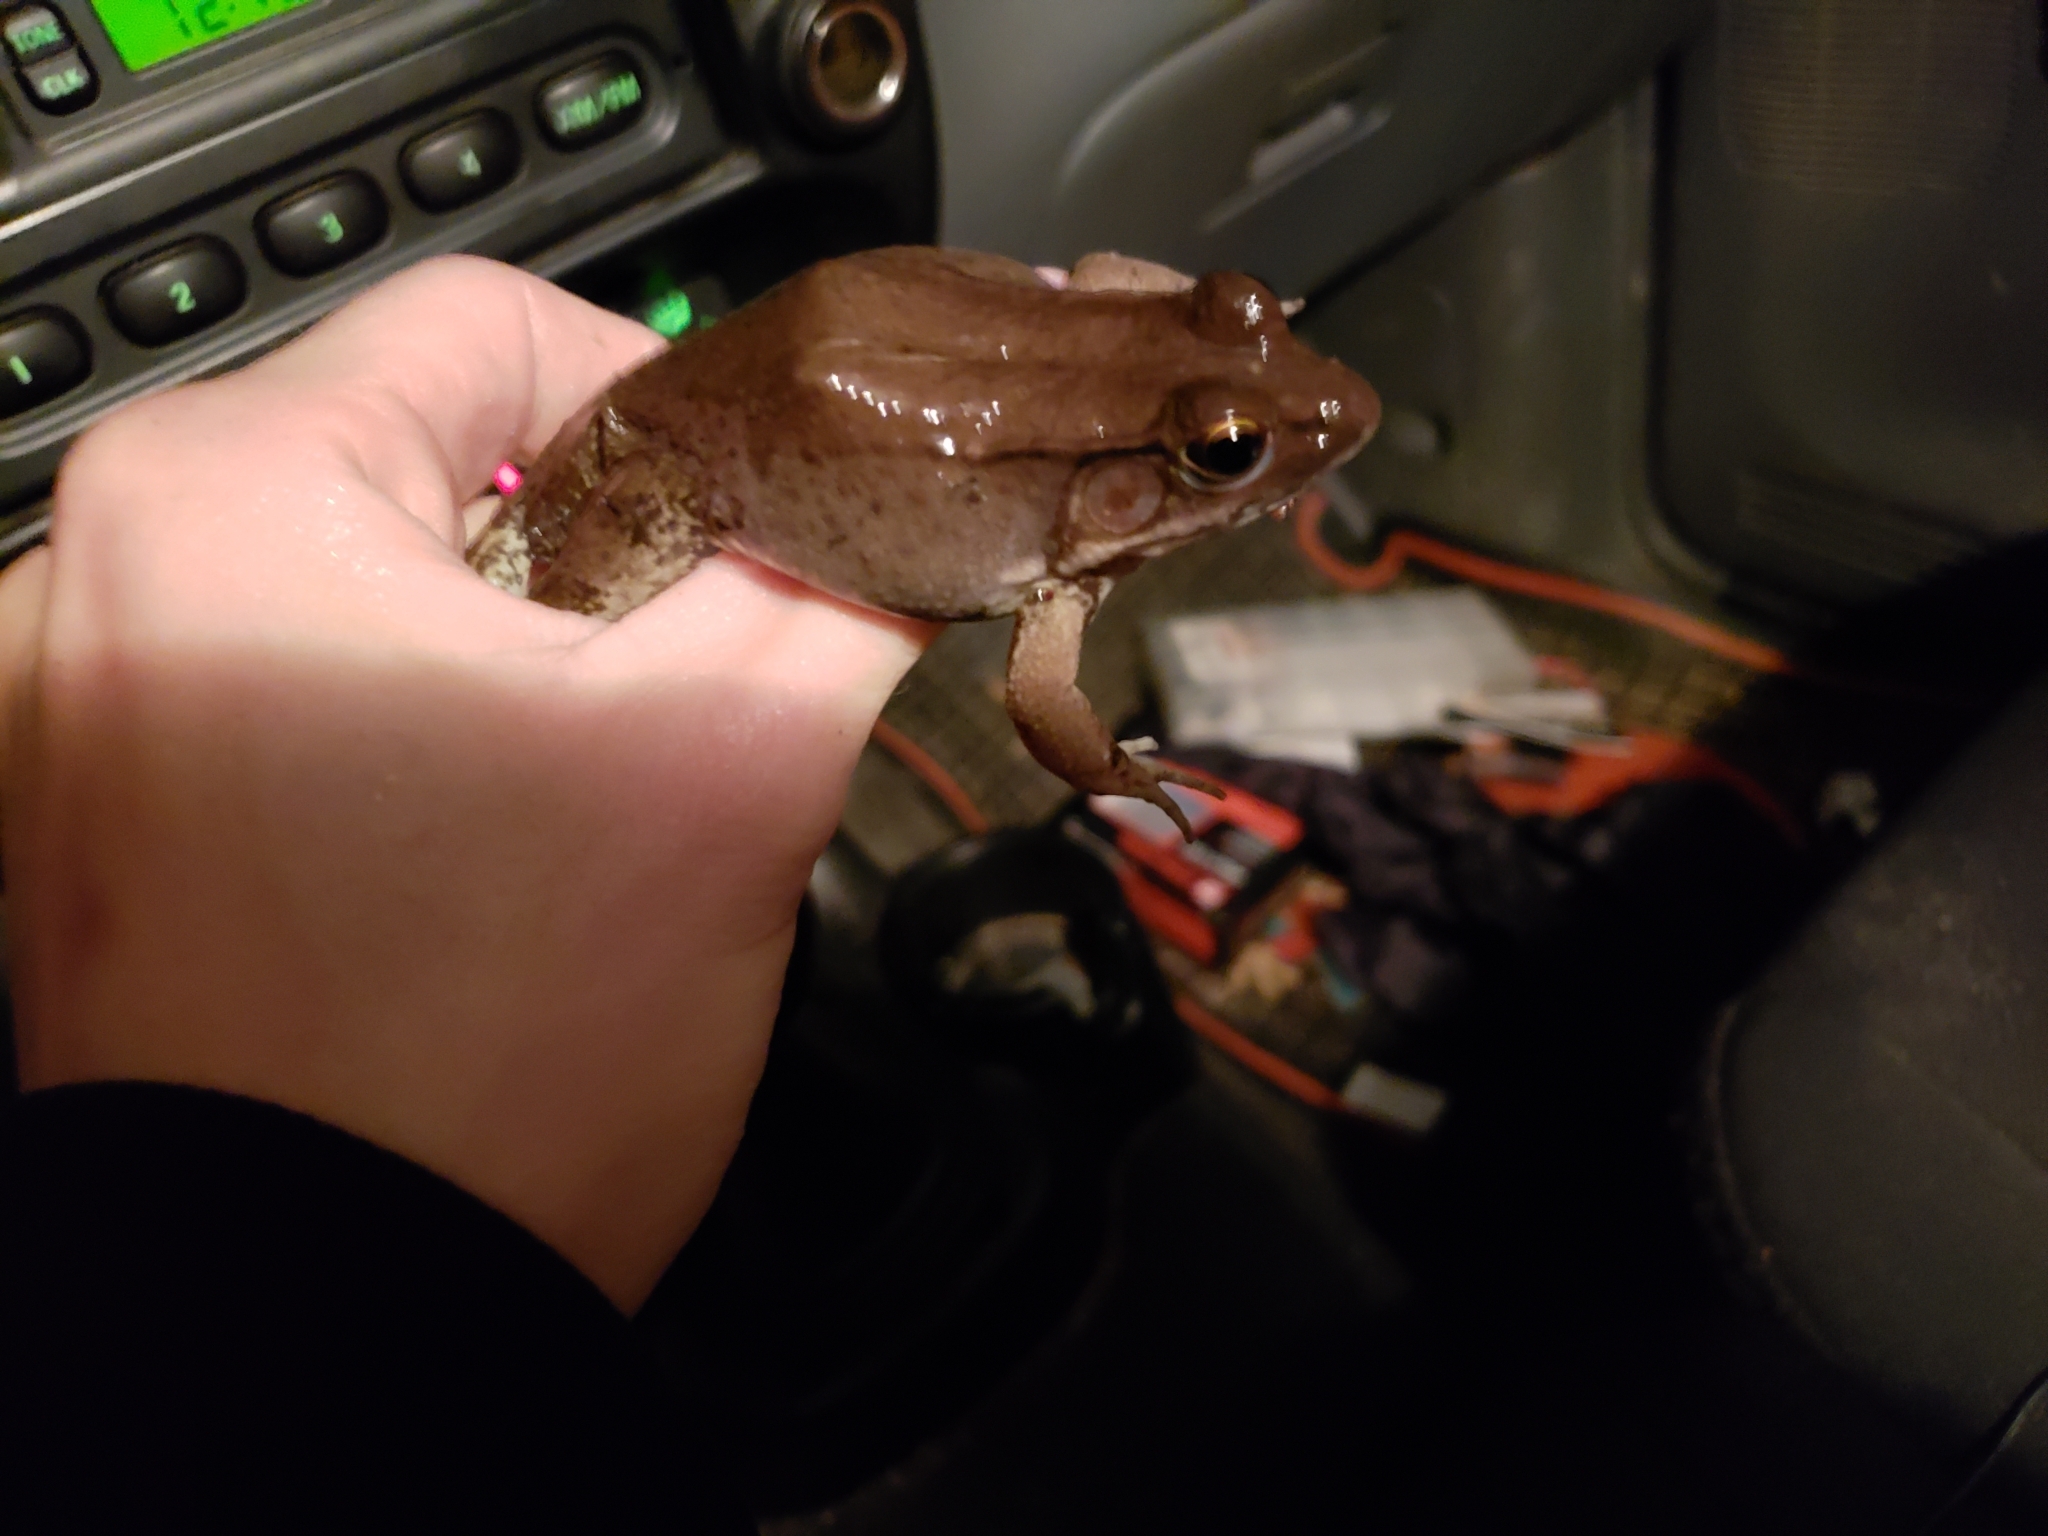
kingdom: Animalia
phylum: Chordata
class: Amphibia
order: Anura
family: Ranidae
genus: Lithobates
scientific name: Lithobates clamitans
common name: Green frog
